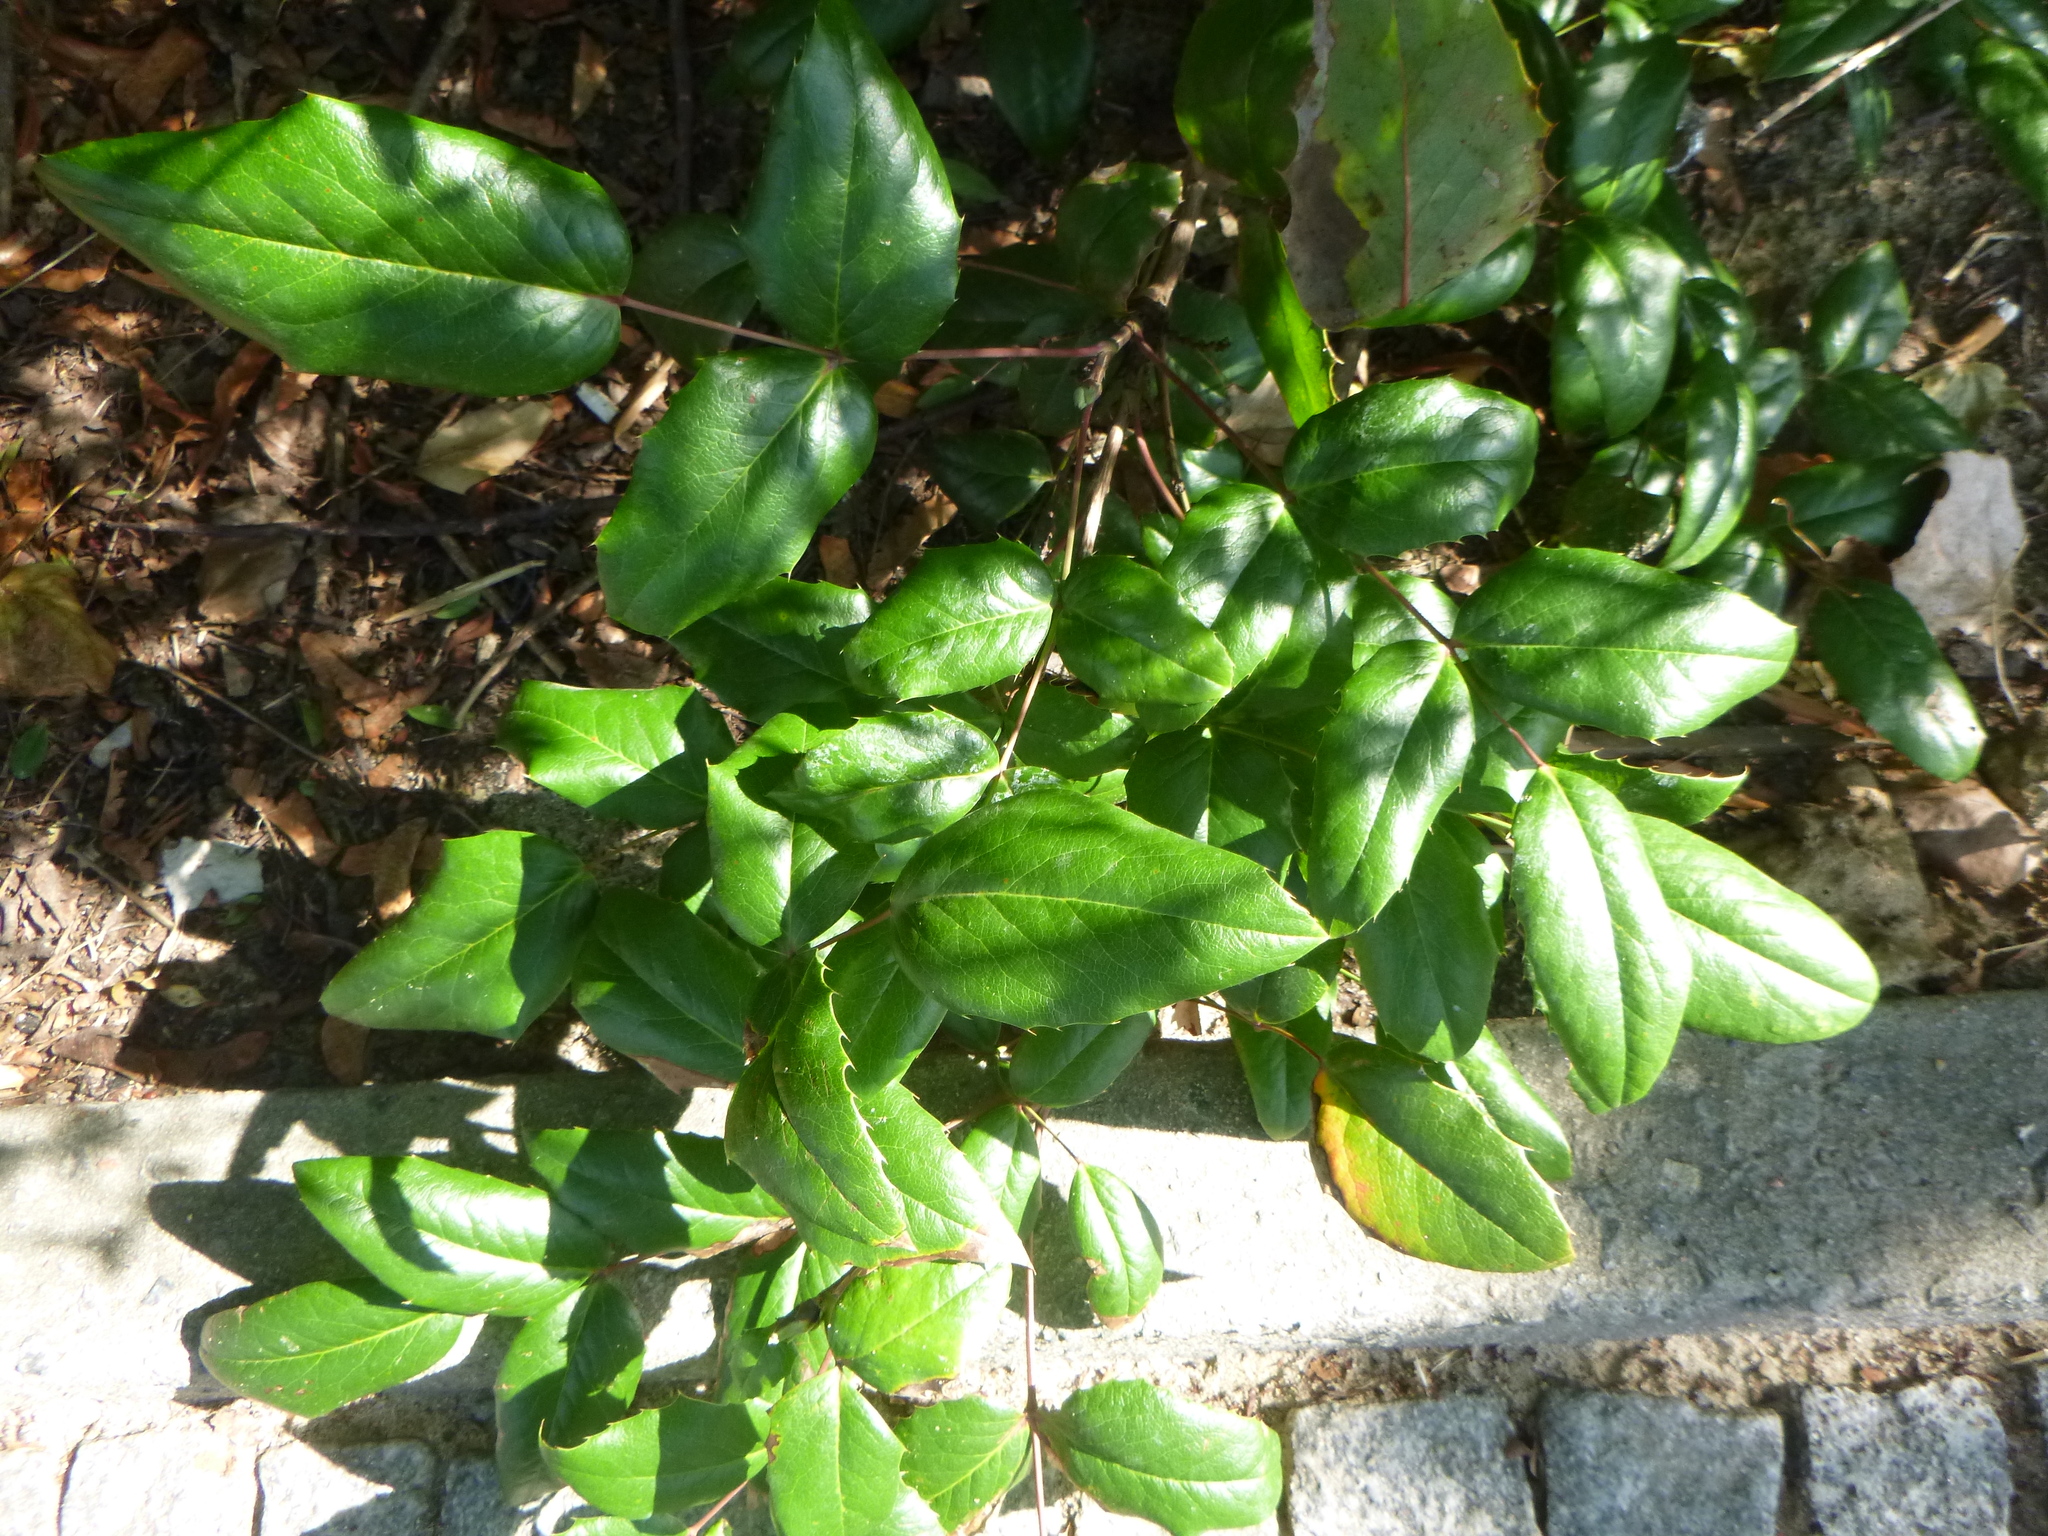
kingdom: Plantae
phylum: Tracheophyta
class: Magnoliopsida
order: Ranunculales
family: Berberidaceae
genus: Mahonia
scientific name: Mahonia aquifolium
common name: Oregon-grape
